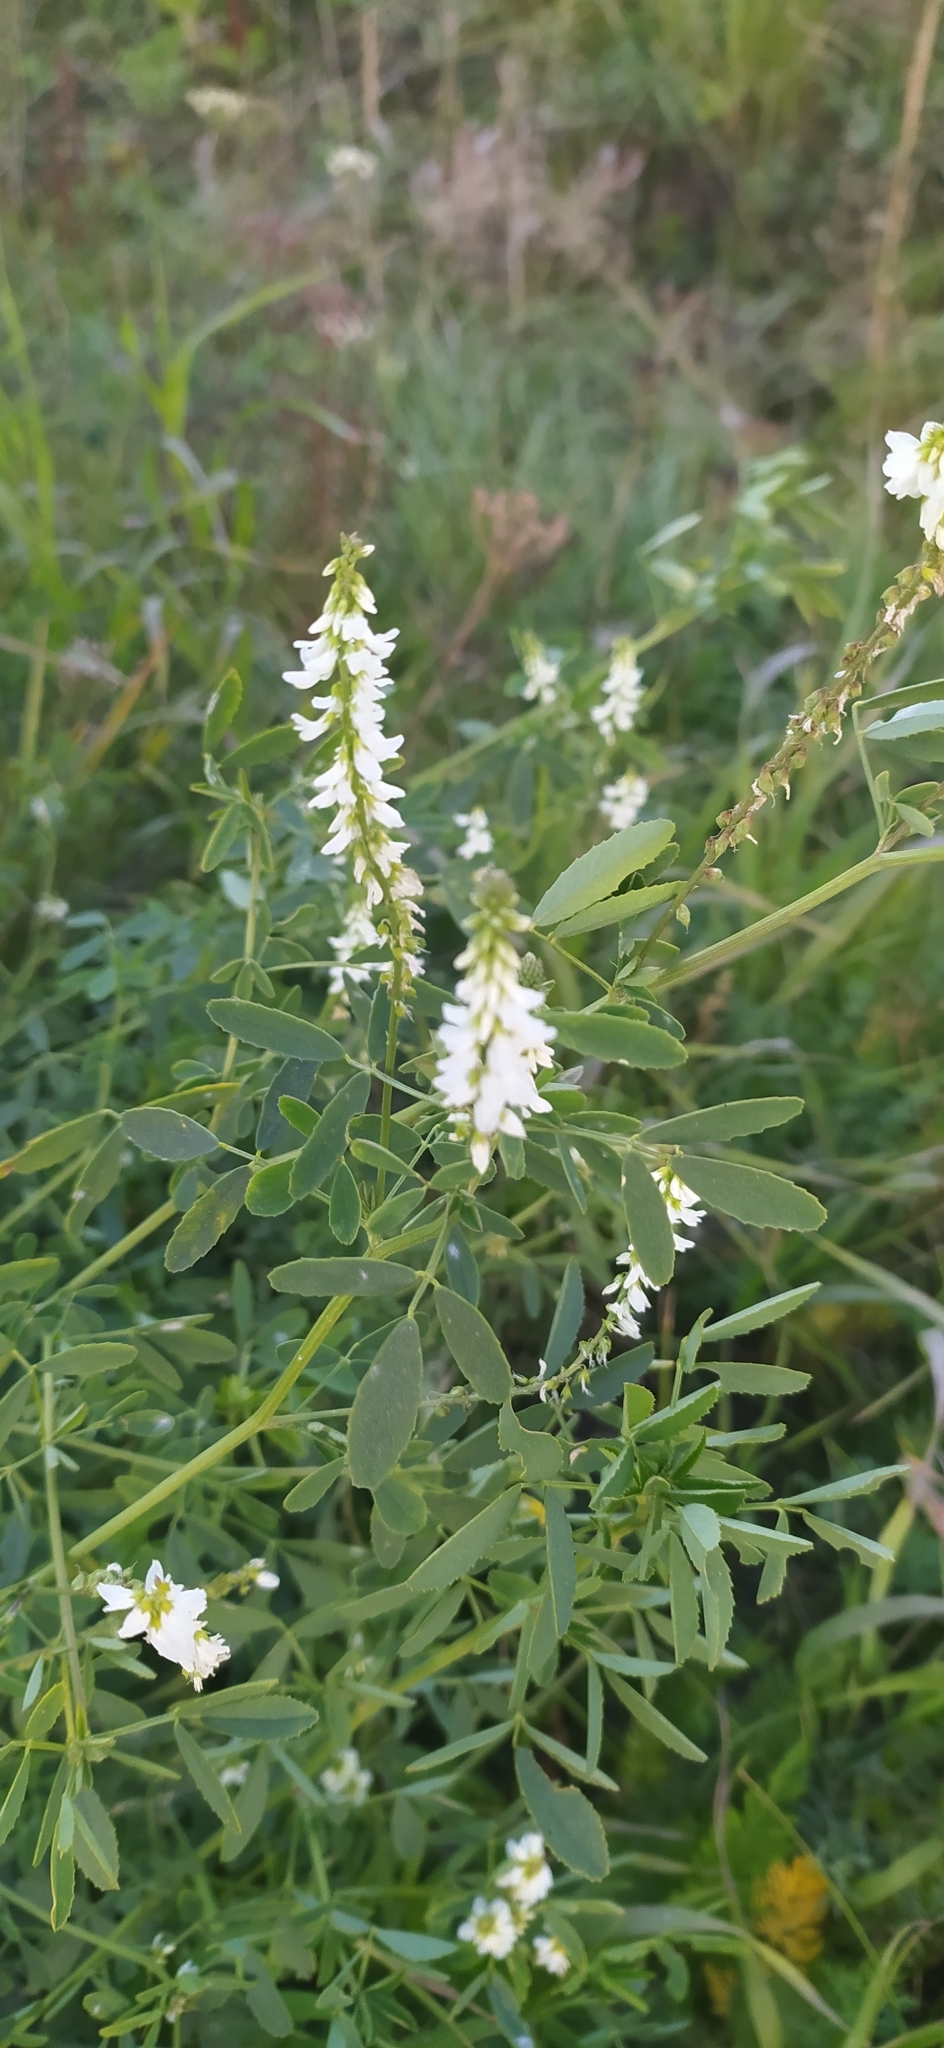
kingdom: Plantae
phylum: Tracheophyta
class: Magnoliopsida
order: Fabales
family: Fabaceae
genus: Melilotus
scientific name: Melilotus albus
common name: White melilot
